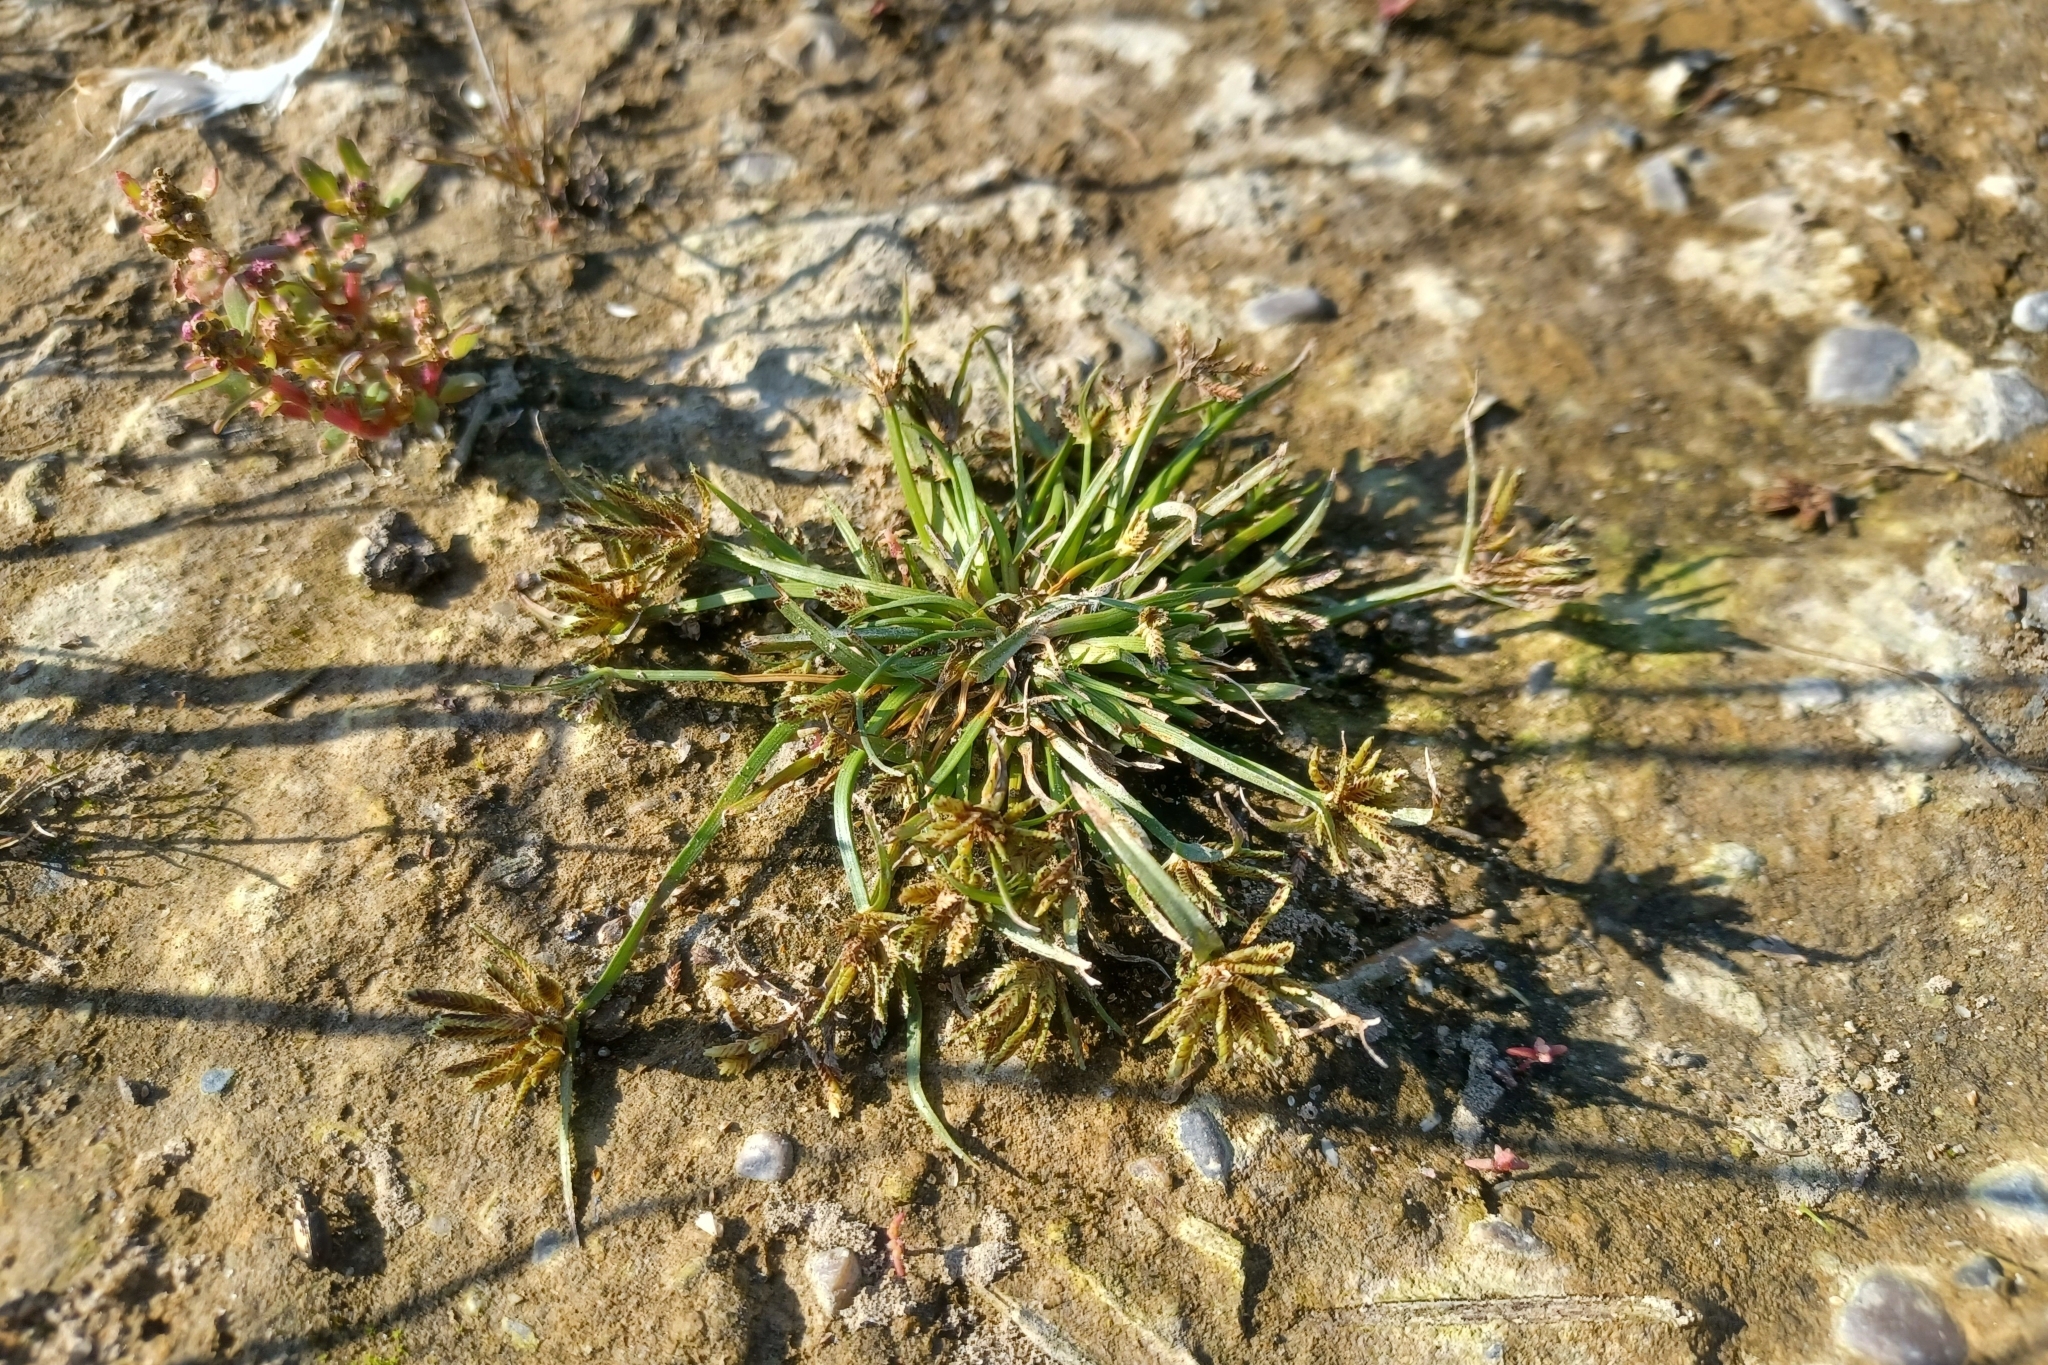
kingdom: Plantae
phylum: Tracheophyta
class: Liliopsida
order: Poales
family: Cyperaceae
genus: Cyperus
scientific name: Cyperus fuscus
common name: Brown galingale
